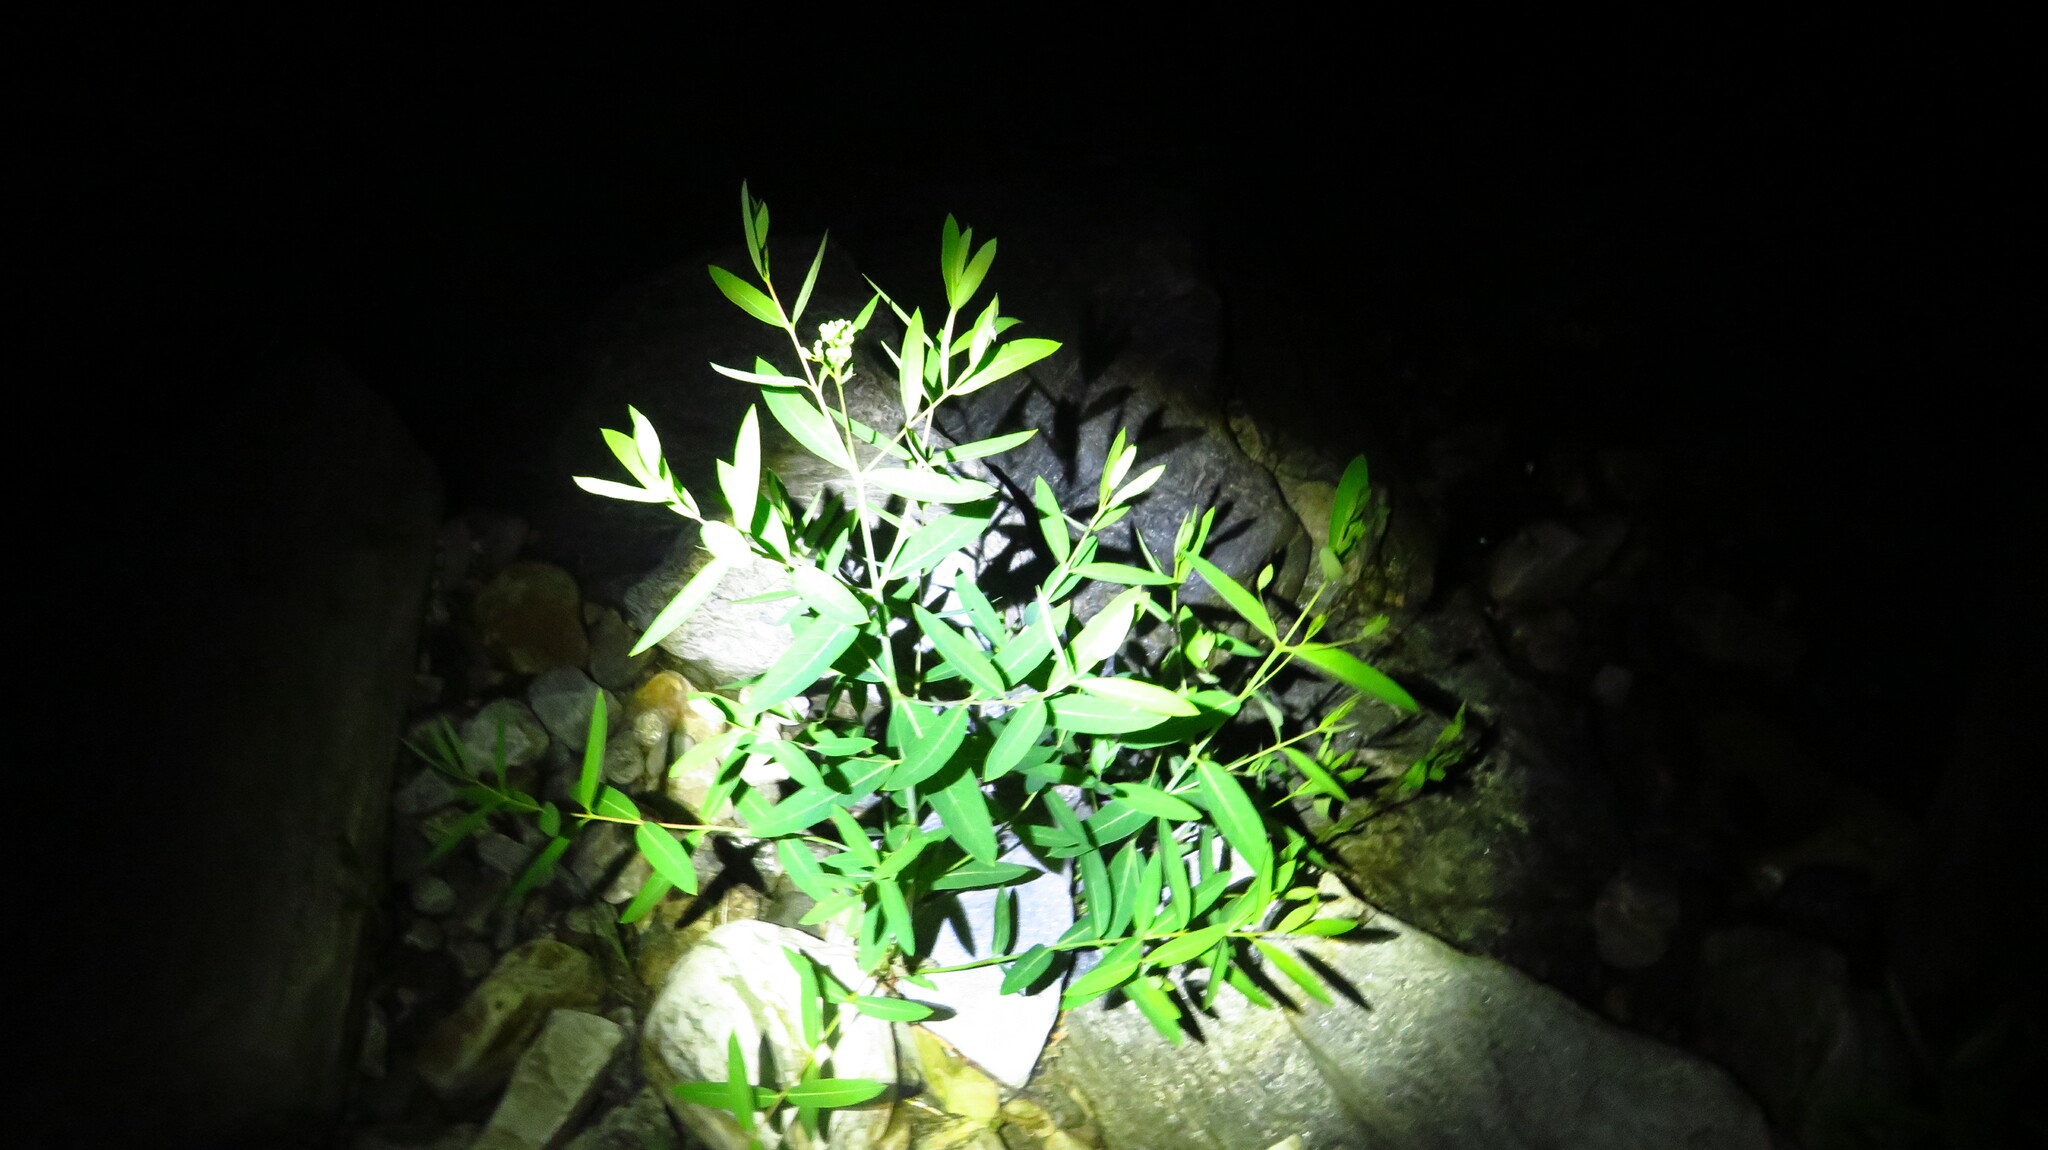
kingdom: Plantae
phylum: Tracheophyta
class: Magnoliopsida
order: Gentianales
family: Apocynaceae
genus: Apocynum
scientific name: Apocynum cannabinum
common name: Hemp dogbane
